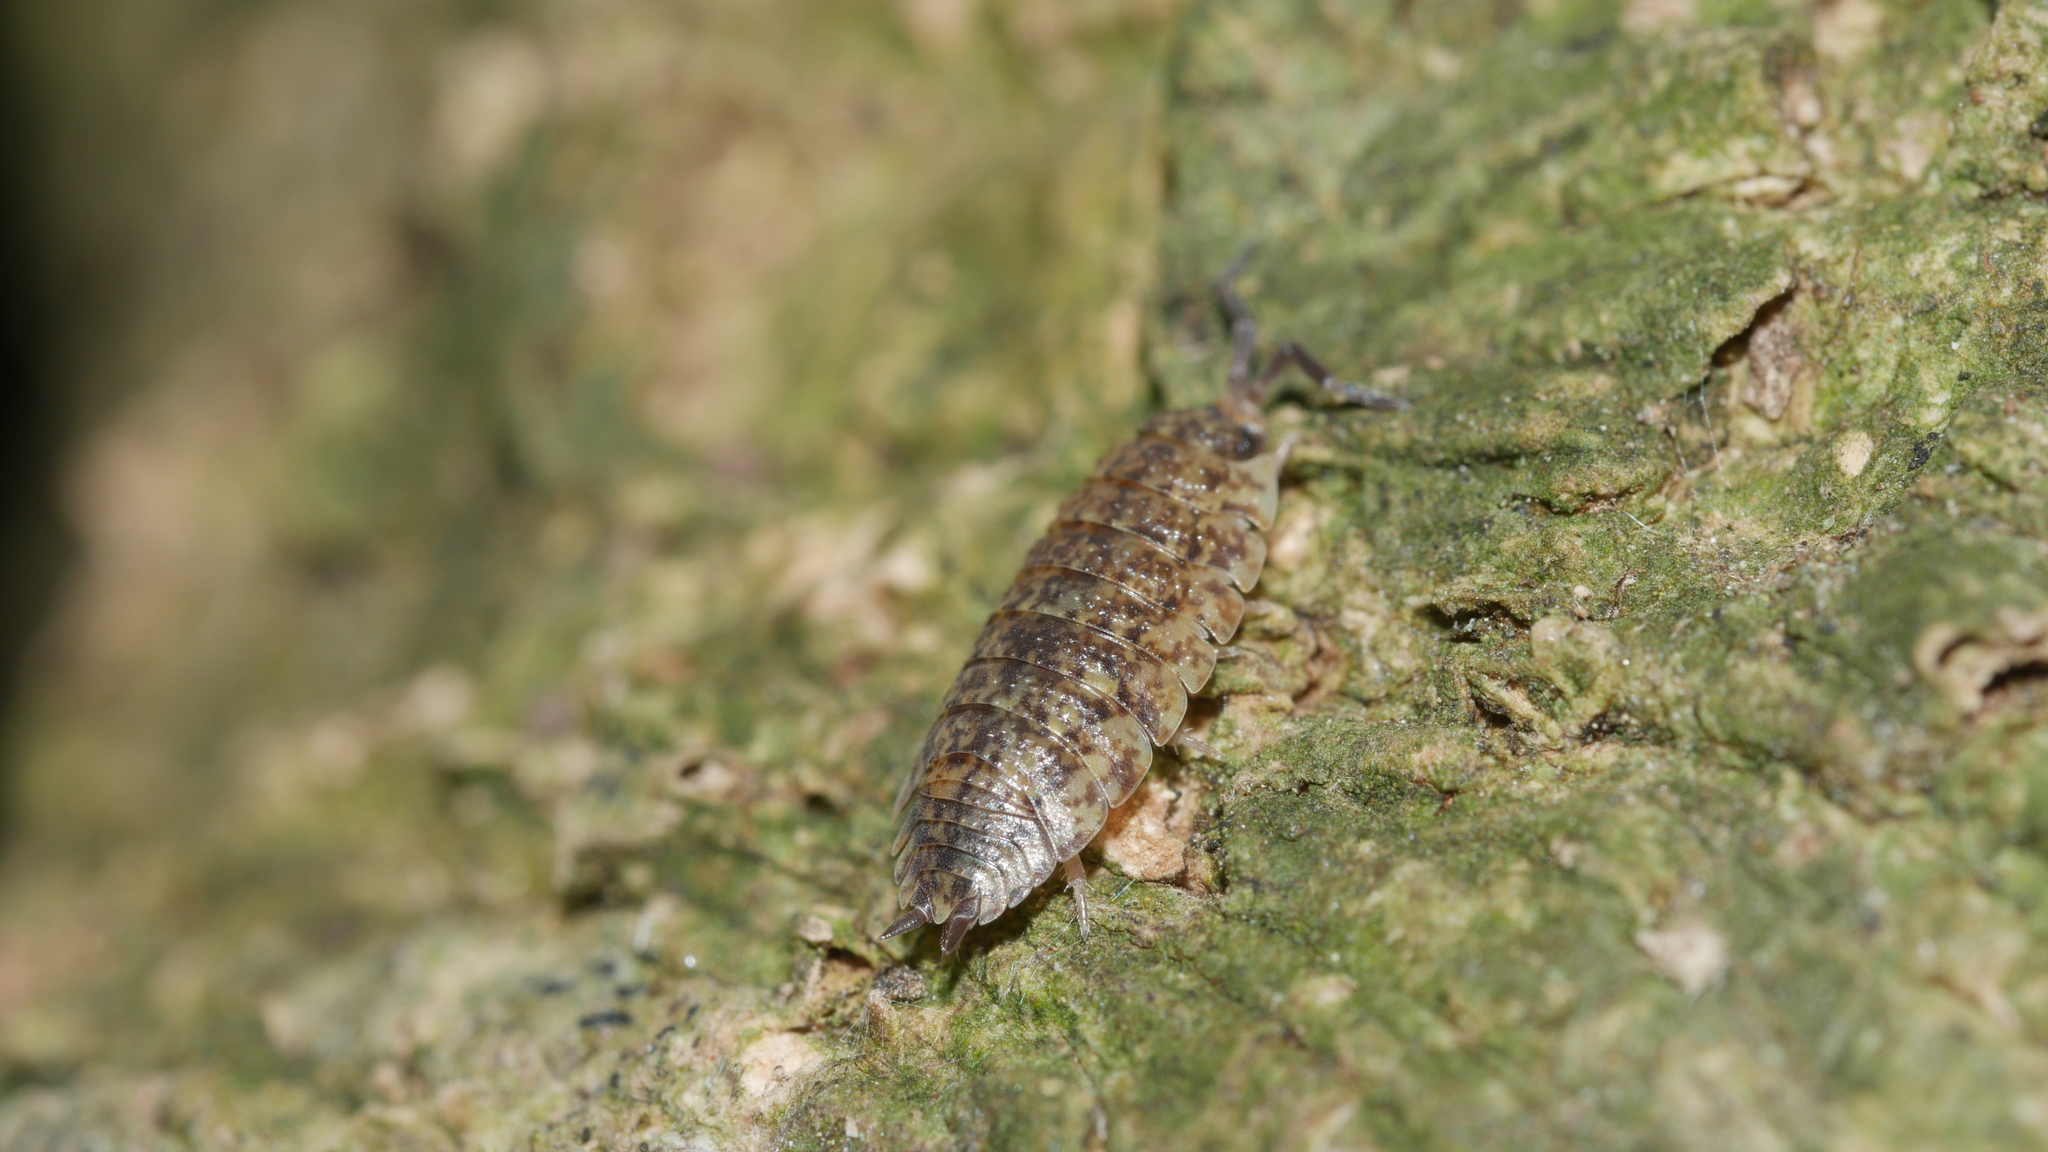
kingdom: Animalia
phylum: Arthropoda
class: Malacostraca
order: Isopoda
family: Porcellionidae
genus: Porcellio
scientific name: Porcellio scaber
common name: Common rough woodlouse
